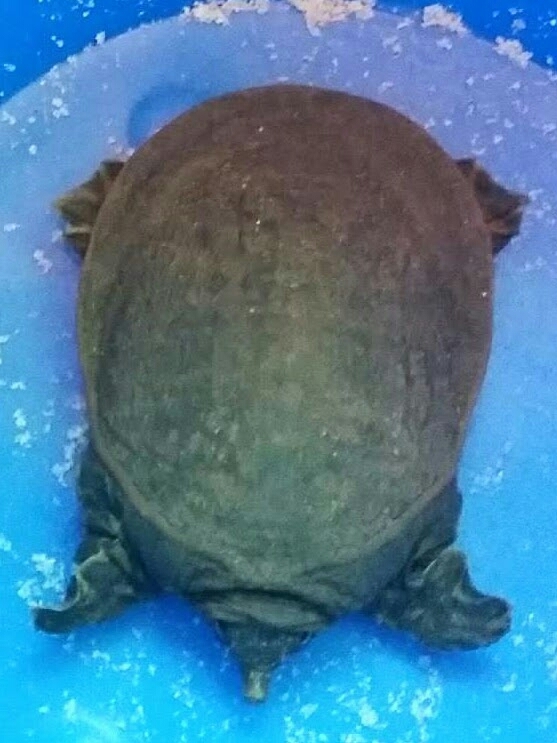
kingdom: Animalia
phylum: Chordata
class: Testudines
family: Trionychidae
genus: Apalone
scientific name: Apalone ferox
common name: Florida softshell turtle
